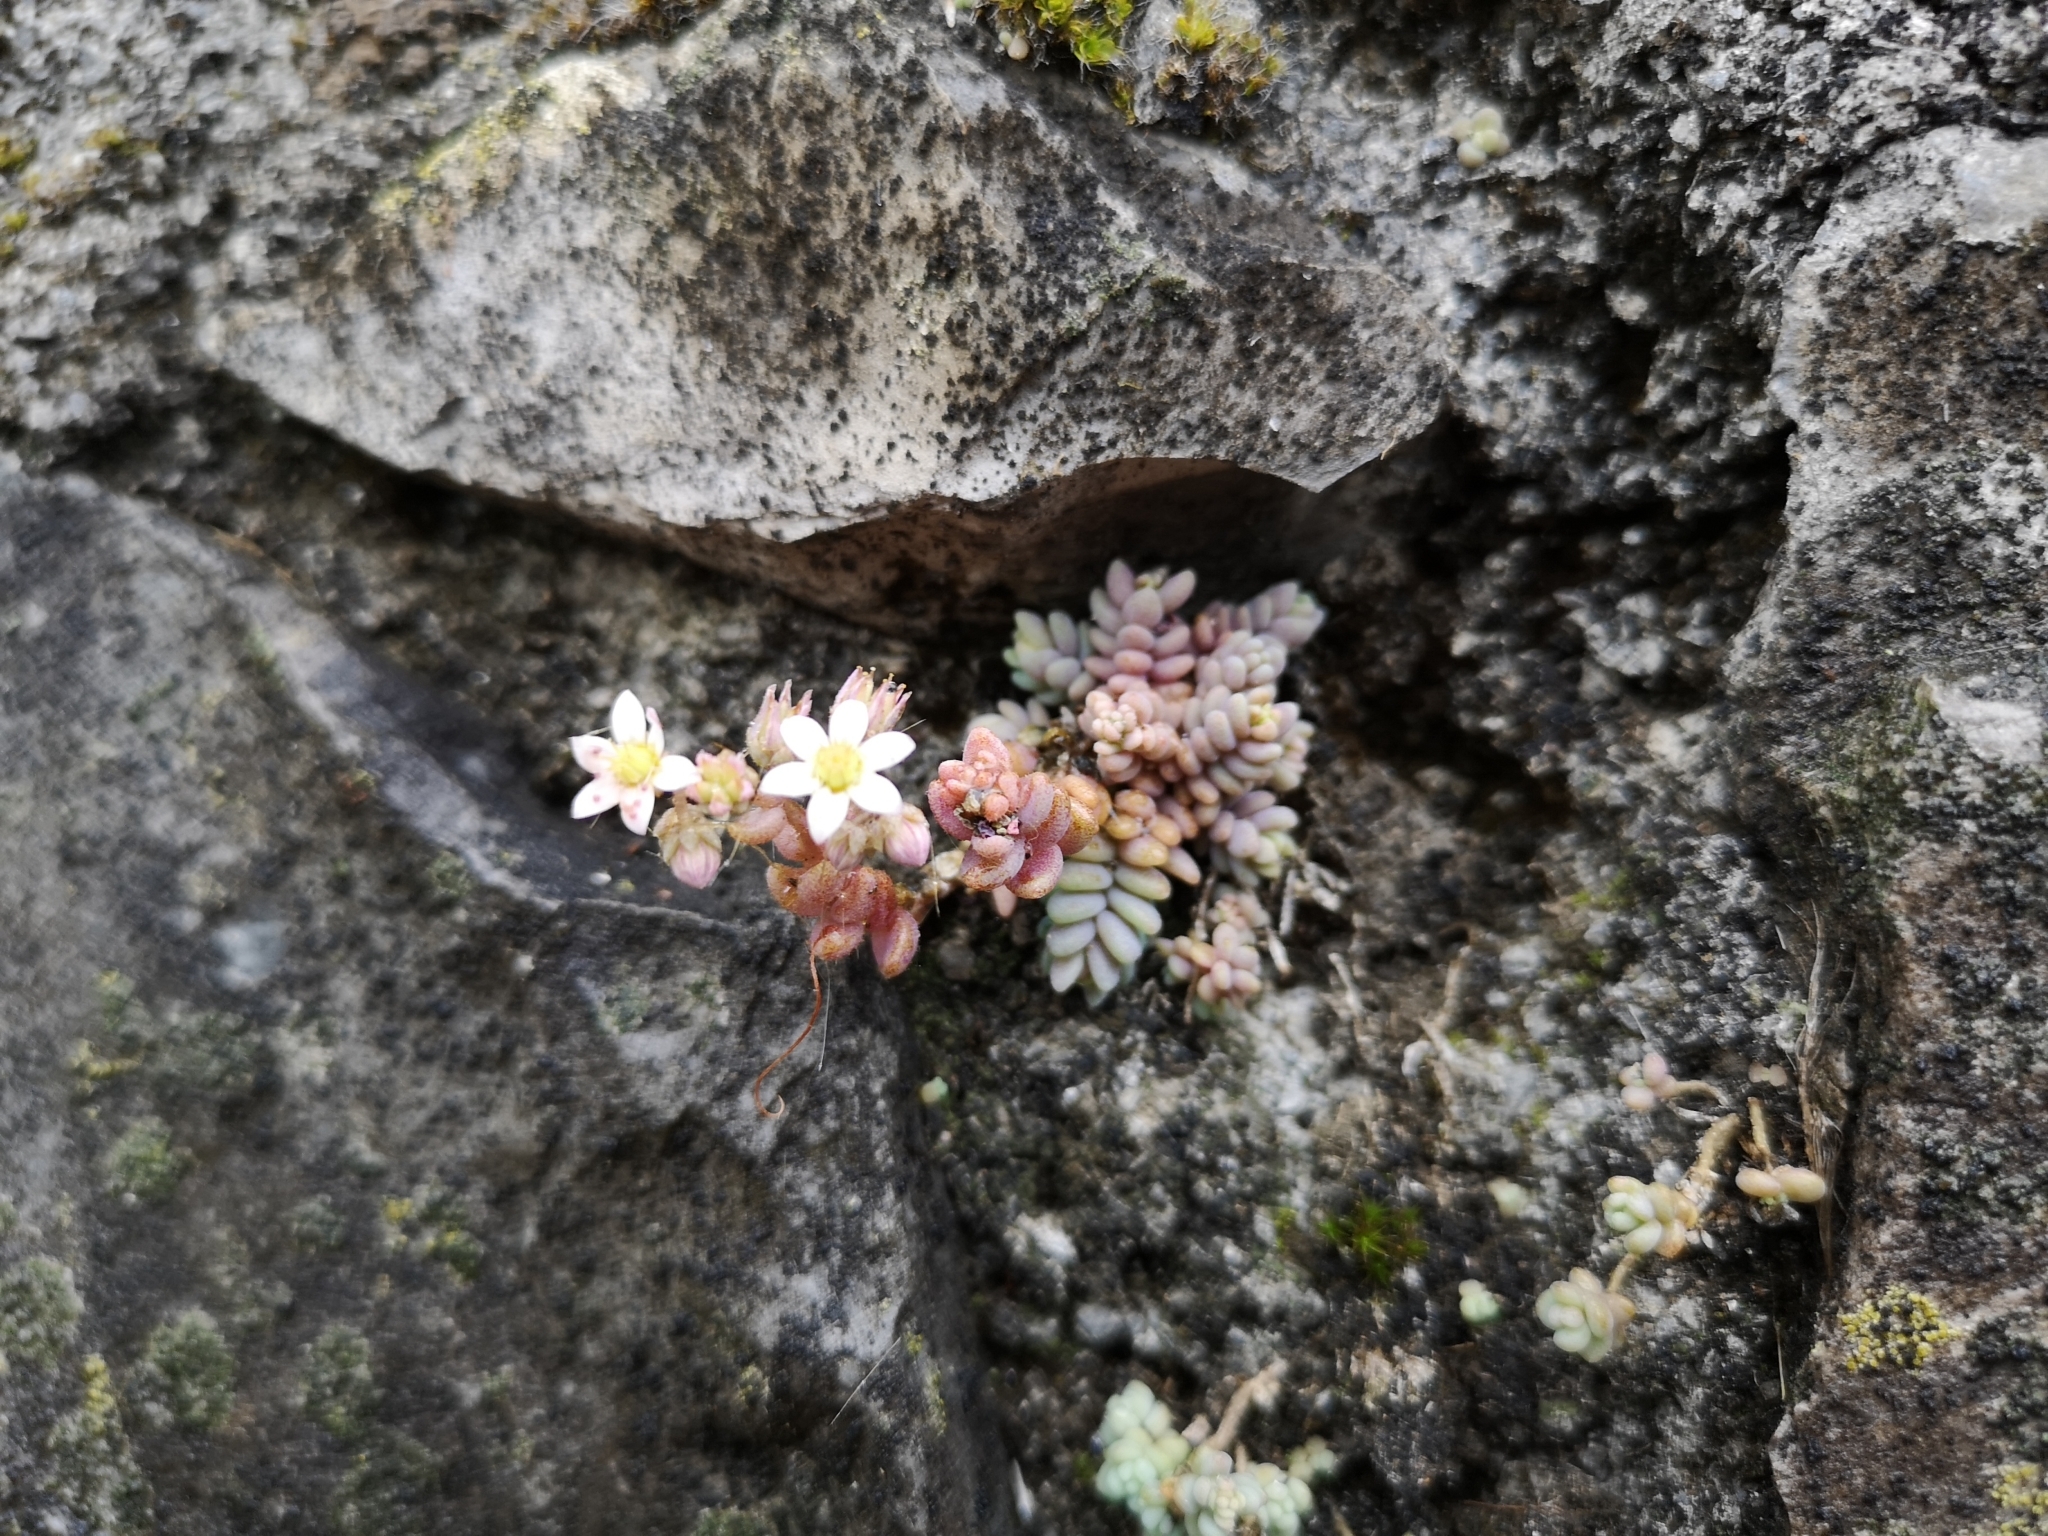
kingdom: Plantae
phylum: Tracheophyta
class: Magnoliopsida
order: Saxifragales
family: Crassulaceae
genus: Sedum
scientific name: Sedum dasyphyllum
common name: Thick-leaf stonecrop
